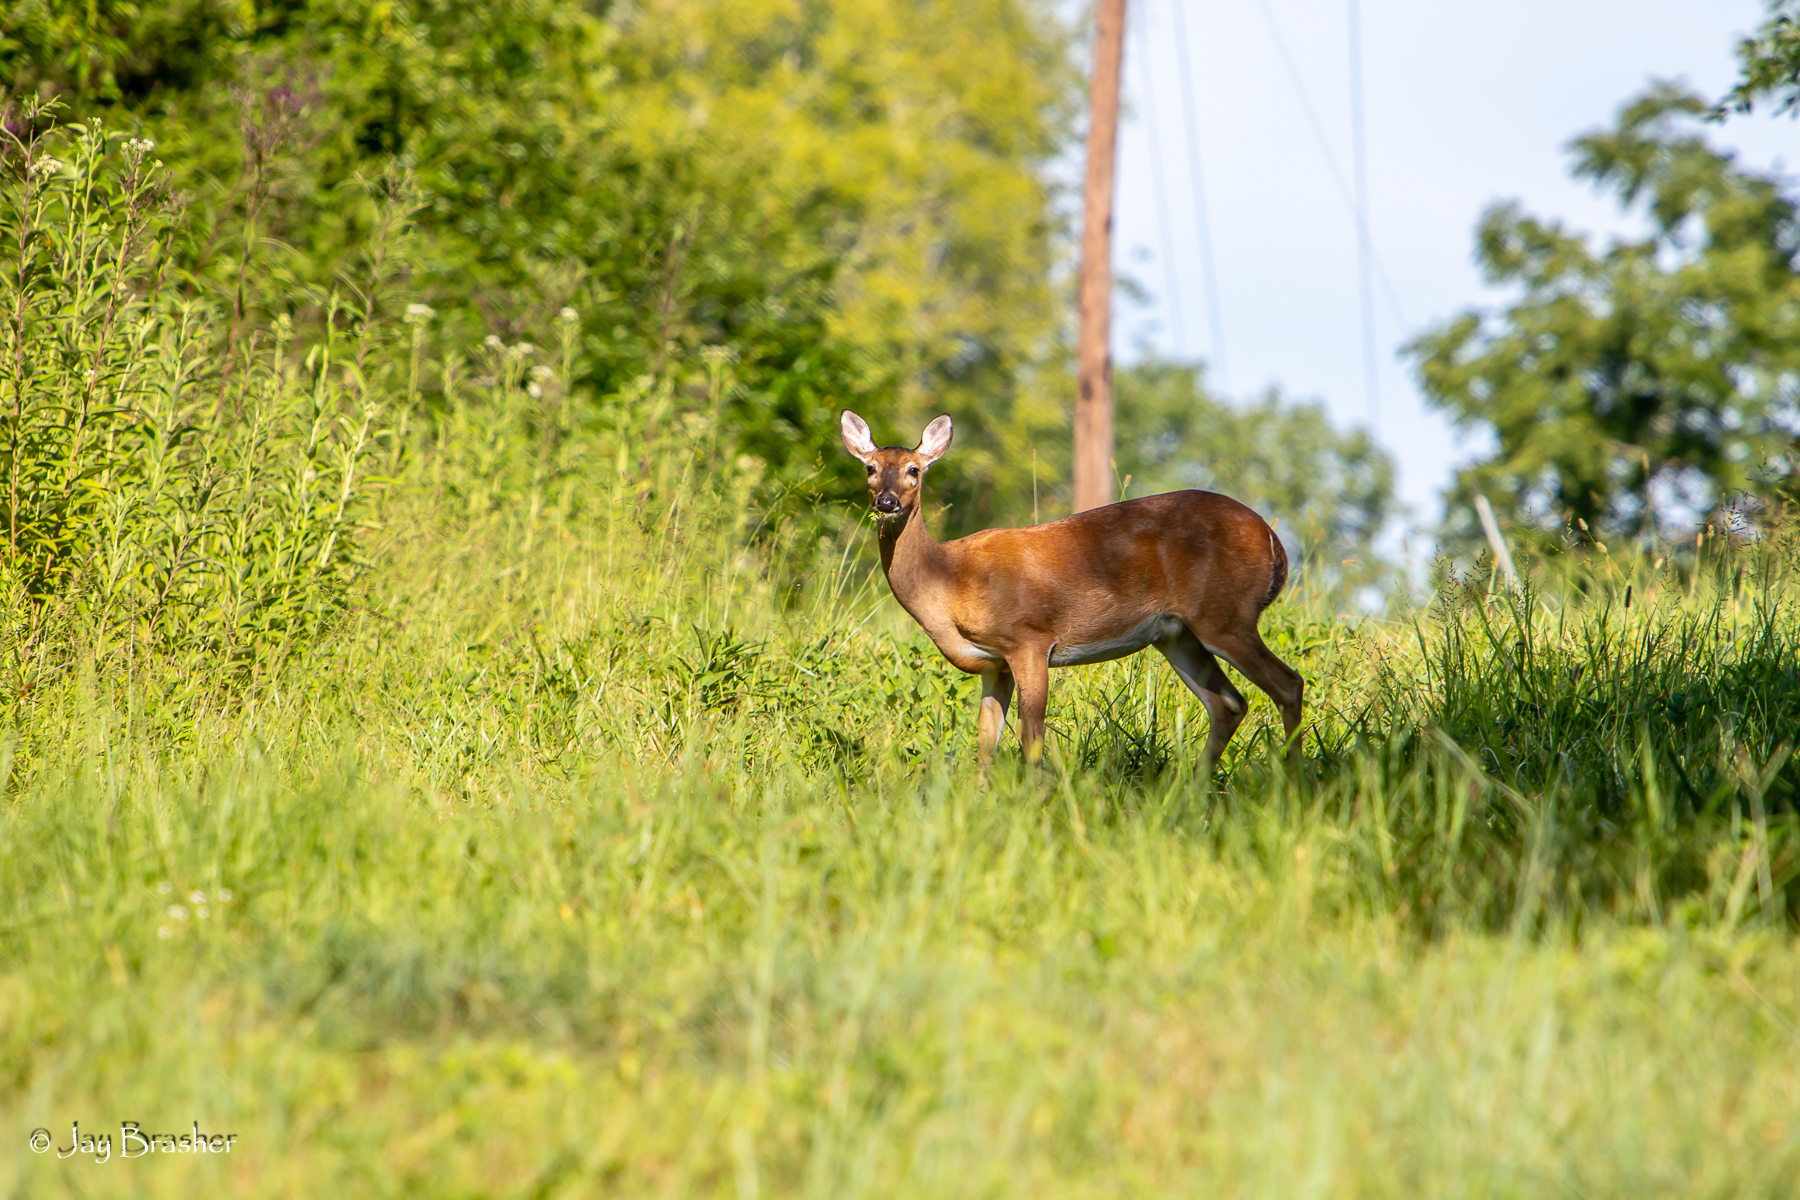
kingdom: Animalia
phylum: Chordata
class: Mammalia
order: Artiodactyla
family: Cervidae
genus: Odocoileus
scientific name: Odocoileus virginianus
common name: White-tailed deer
